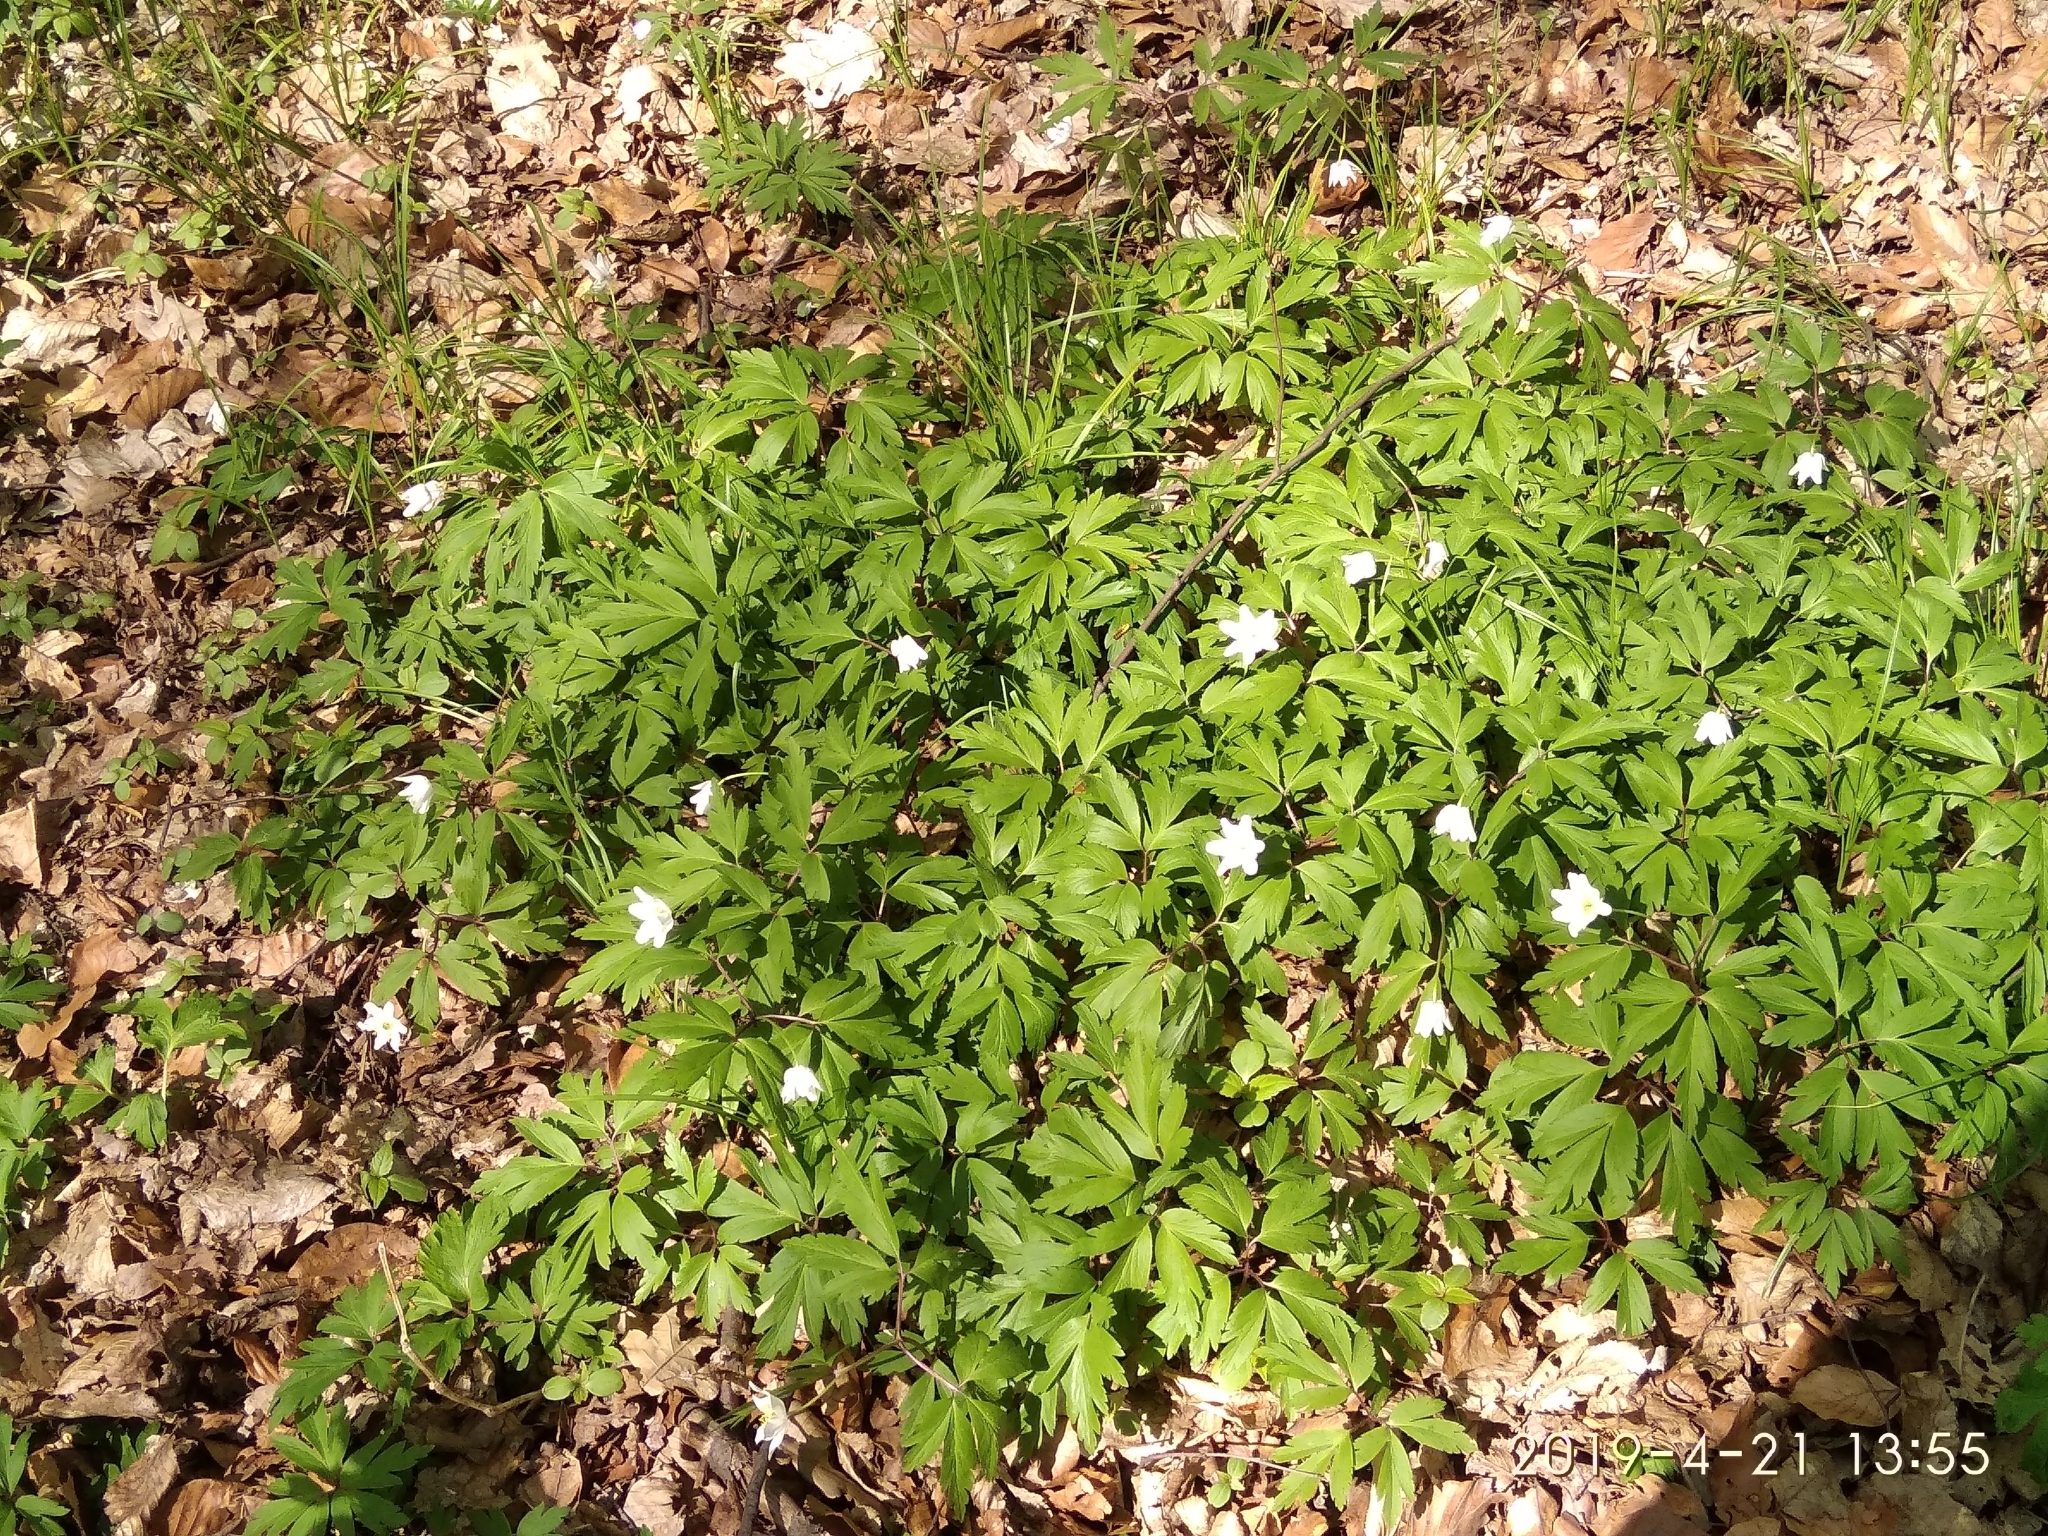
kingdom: Plantae
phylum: Tracheophyta
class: Magnoliopsida
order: Ranunculales
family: Ranunculaceae
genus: Anemone
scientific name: Anemone nemorosa
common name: Wood anemone
